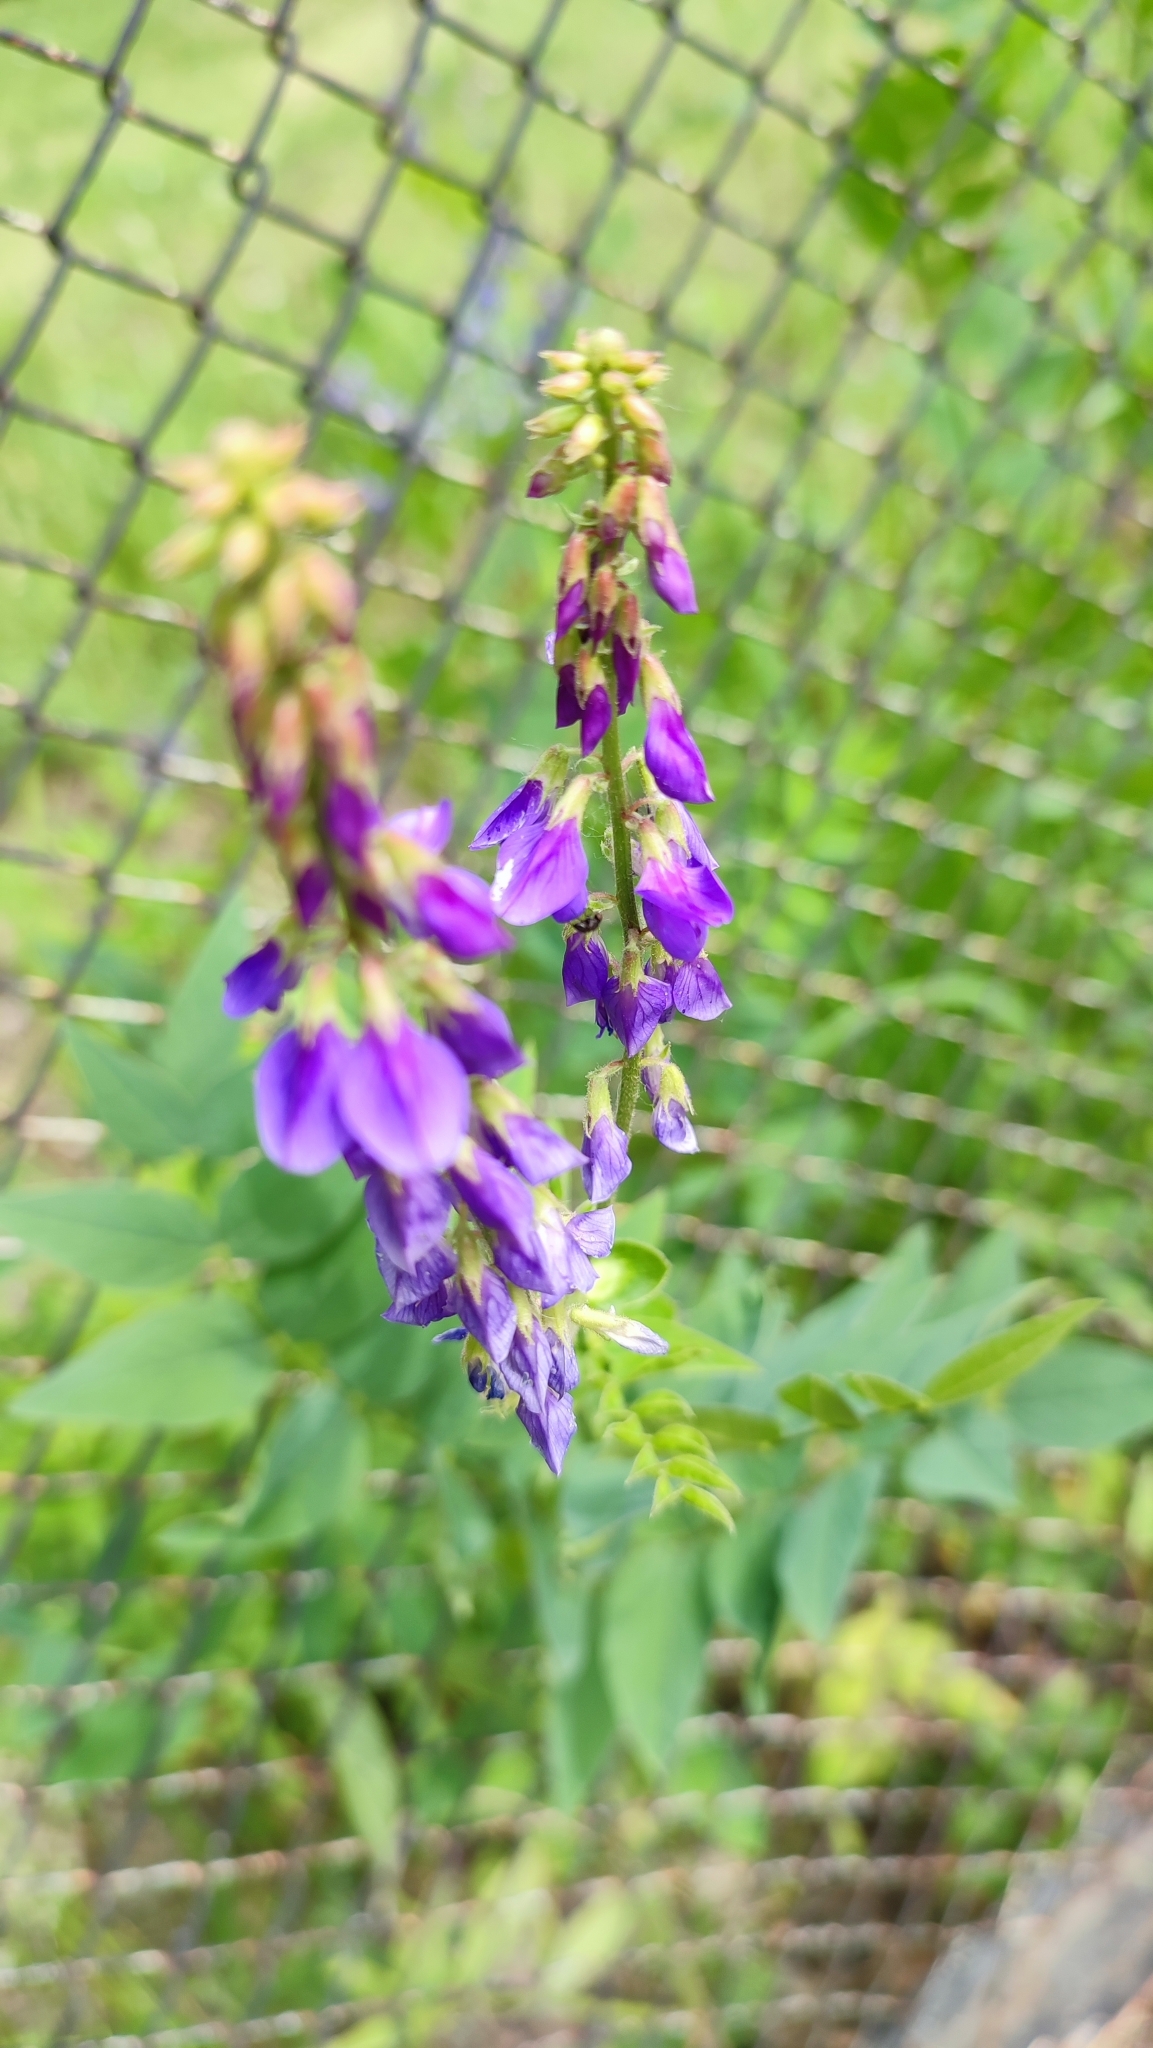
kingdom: Plantae
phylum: Tracheophyta
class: Magnoliopsida
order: Fabales
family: Fabaceae
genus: Galega
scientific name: Galega orientalis
